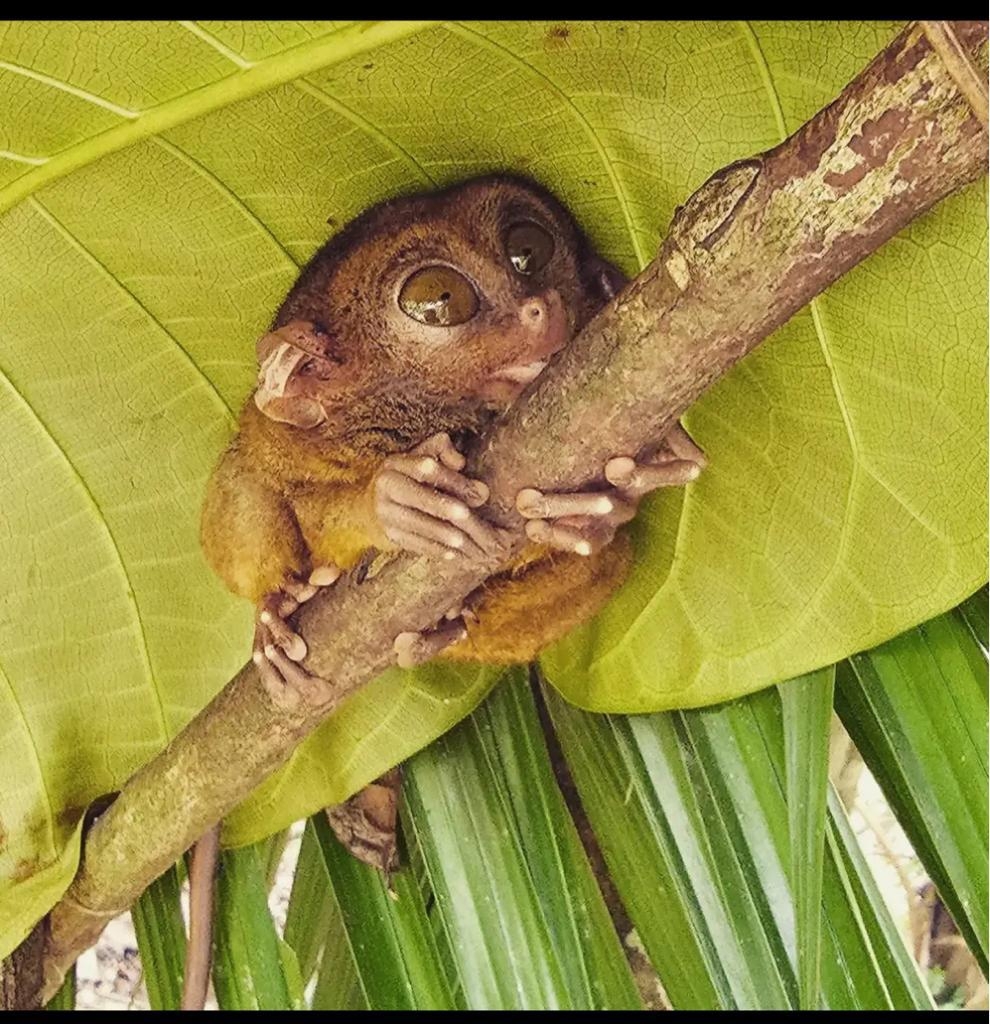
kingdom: Animalia
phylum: Chordata
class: Mammalia
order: Primates
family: Tarsiidae
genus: Carlito
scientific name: Carlito syrichta
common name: Philippine tarsier
